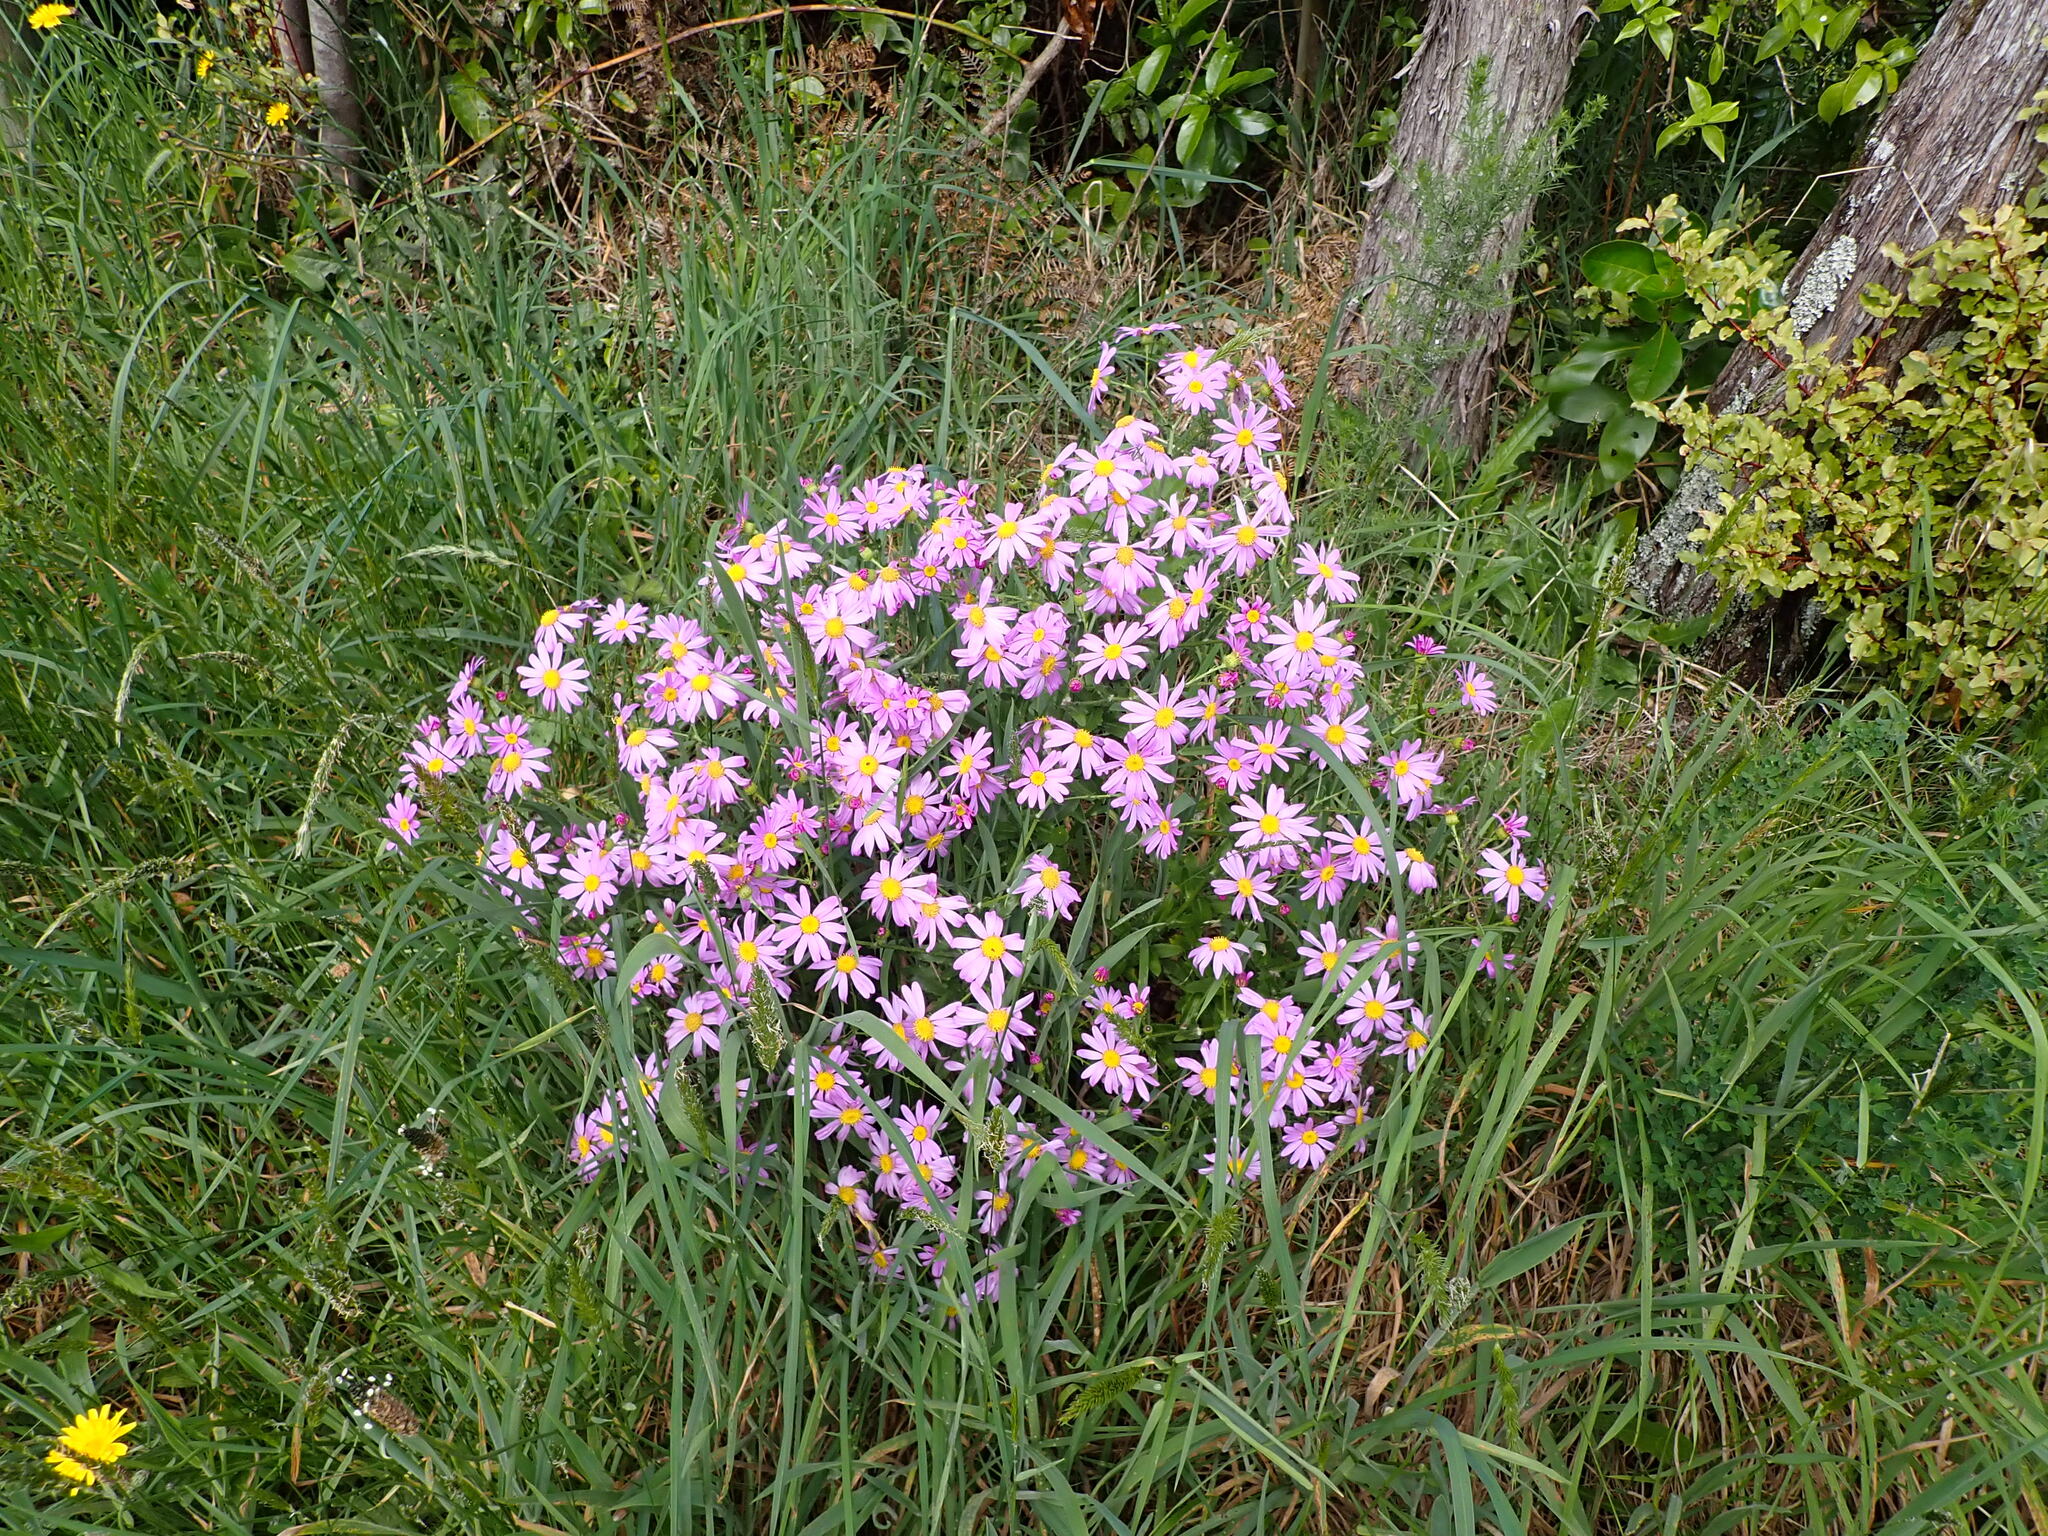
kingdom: Plantae
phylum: Tracheophyta
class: Magnoliopsida
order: Asterales
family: Asteraceae
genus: Senecio
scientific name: Senecio glastifolius
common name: Woad-leaved ragwort
